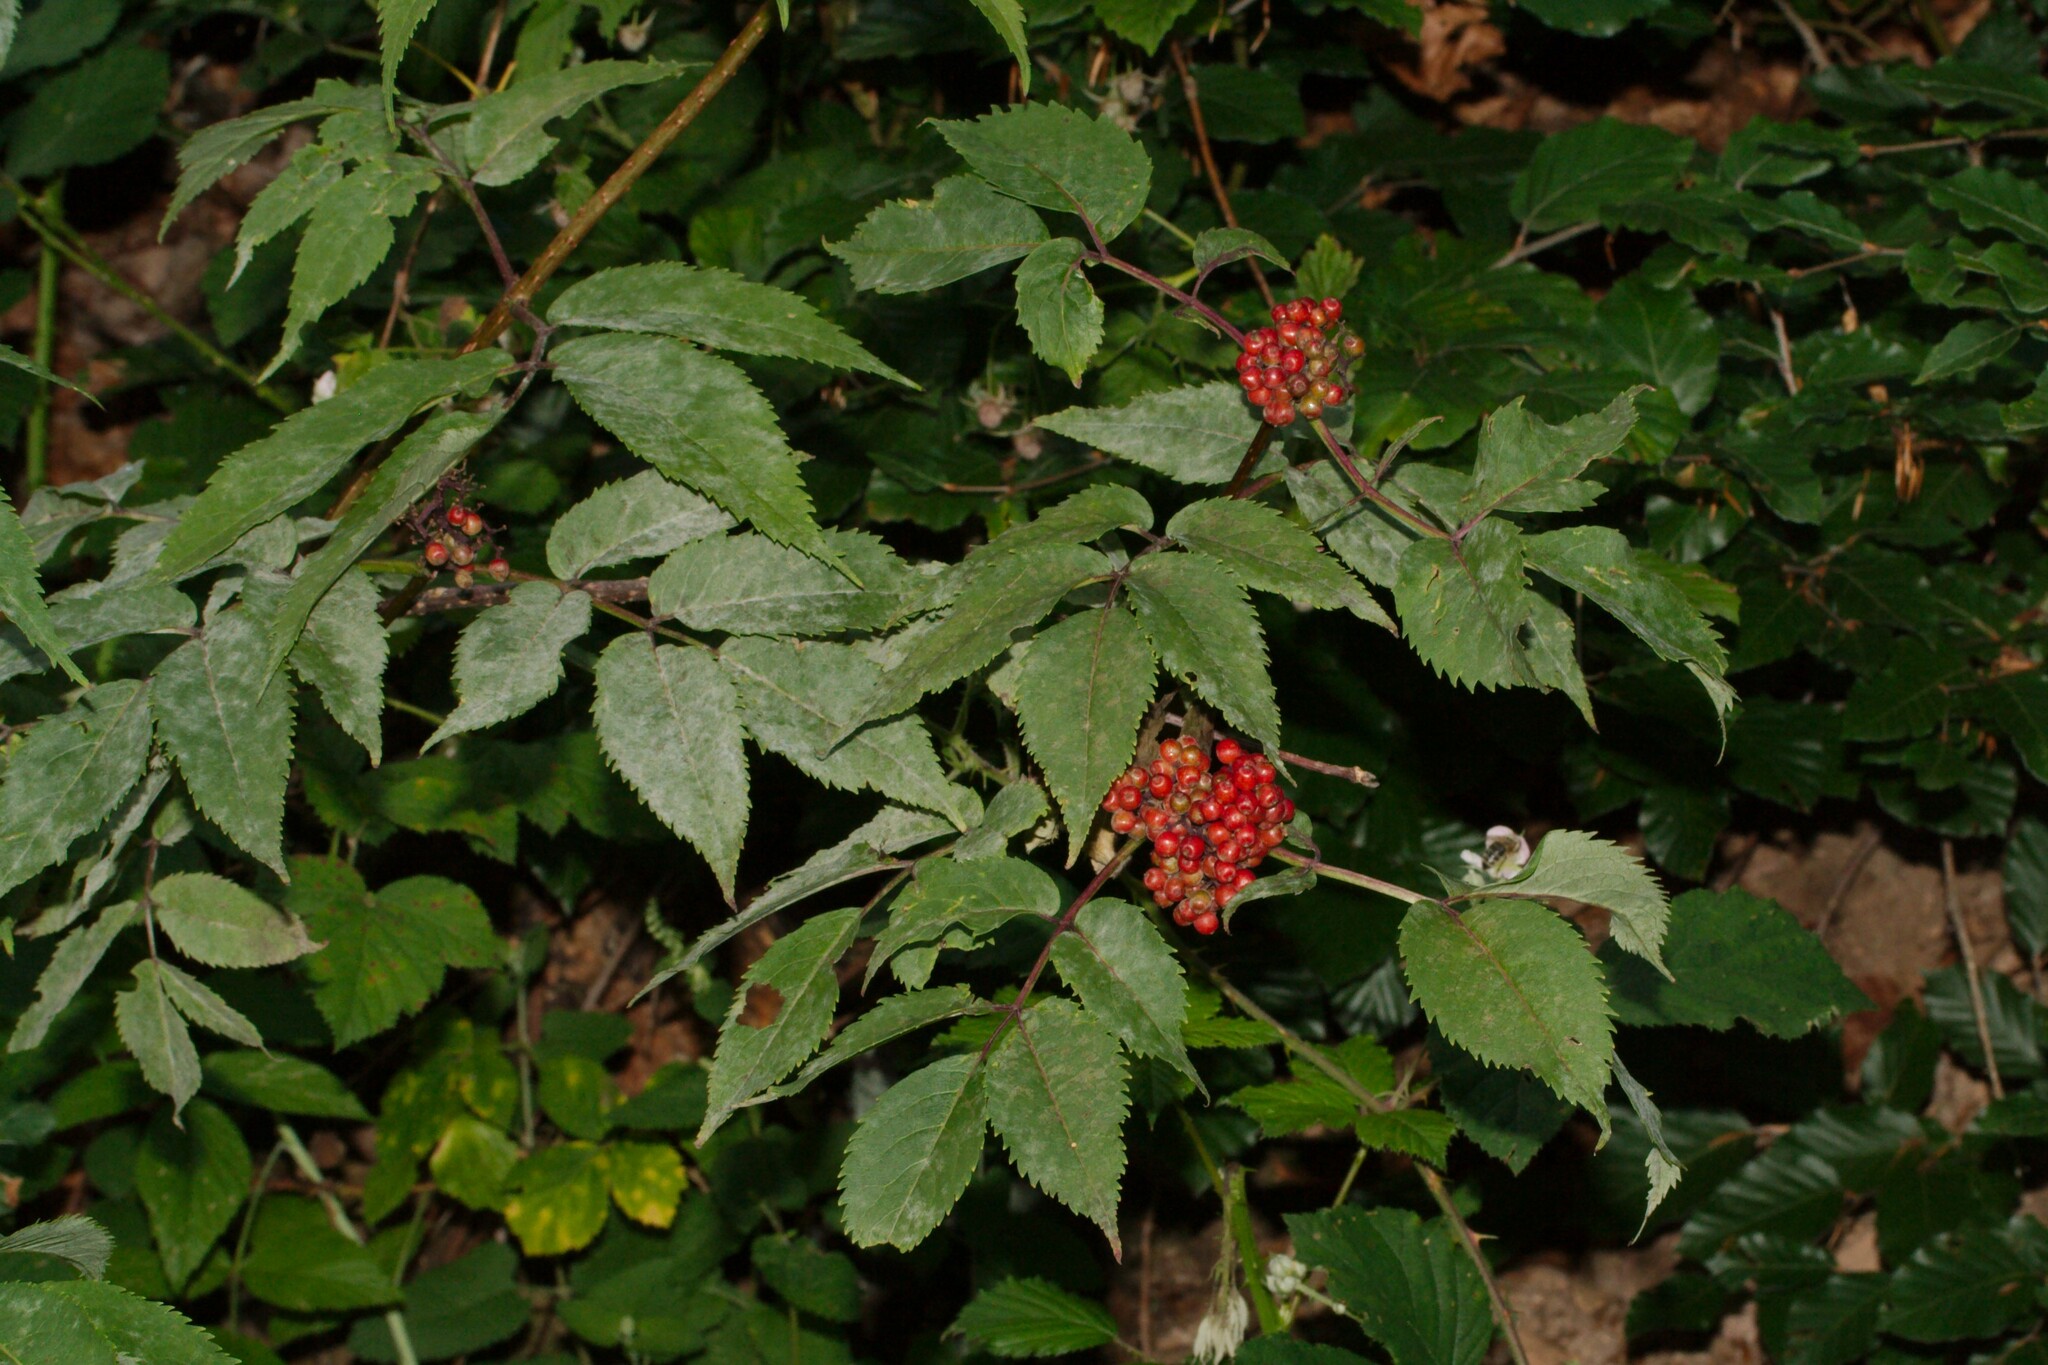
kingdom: Plantae
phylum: Tracheophyta
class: Magnoliopsida
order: Dipsacales
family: Viburnaceae
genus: Sambucus
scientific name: Sambucus racemosa
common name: Red-berried elder
